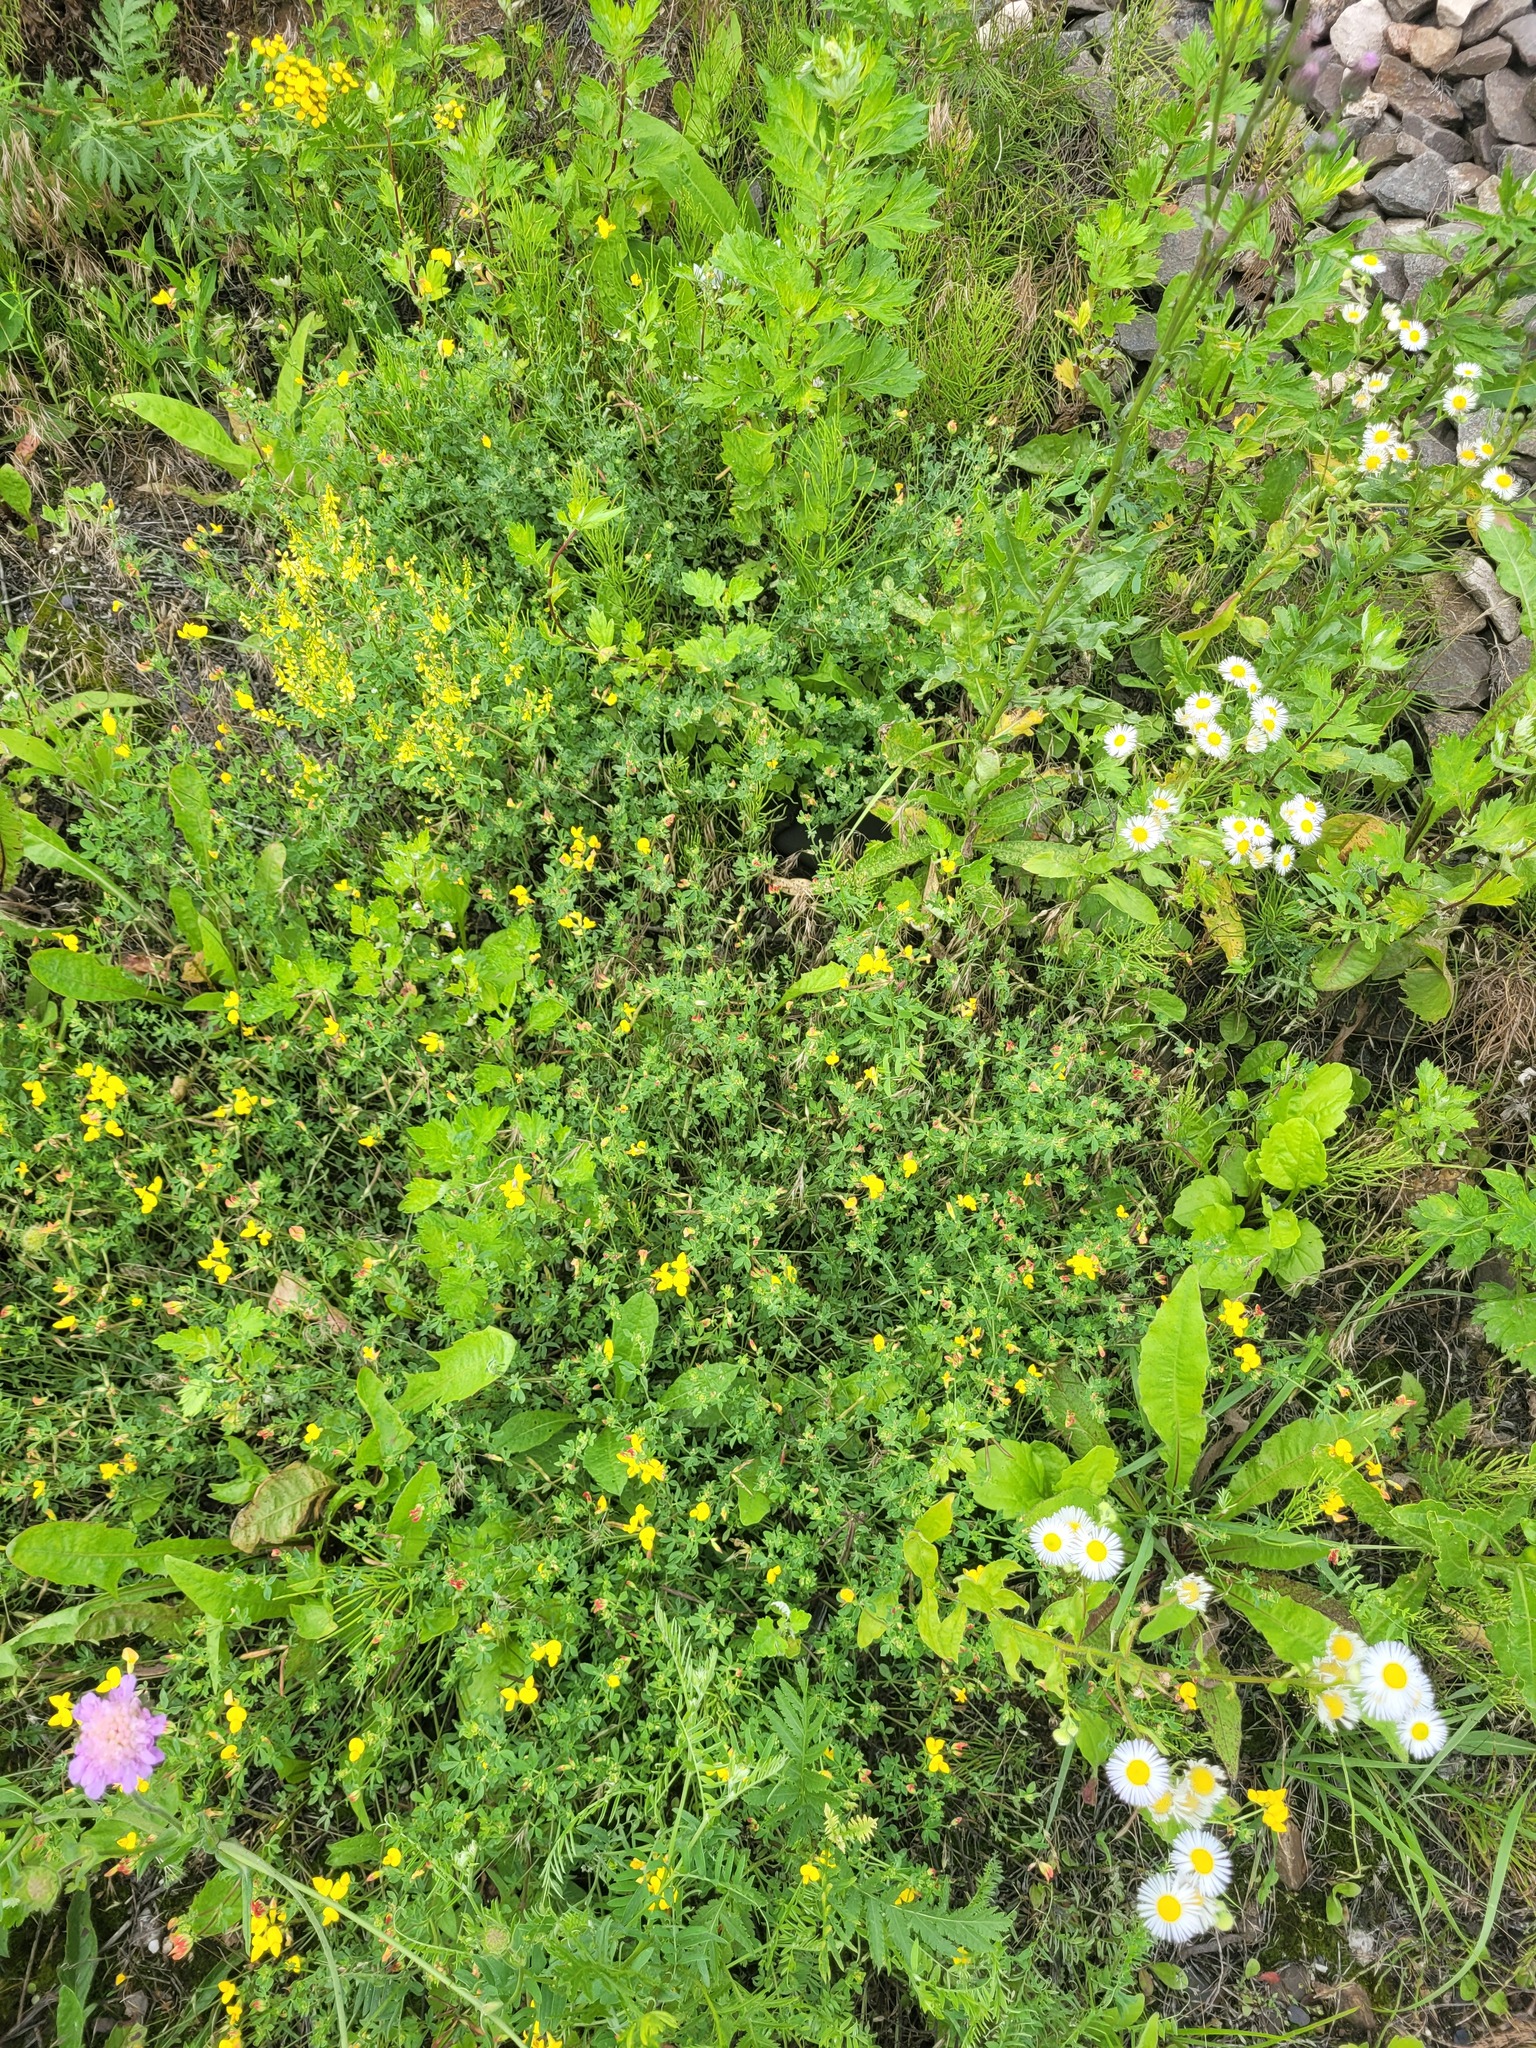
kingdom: Plantae
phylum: Tracheophyta
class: Magnoliopsida
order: Fabales
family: Fabaceae
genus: Lotus
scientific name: Lotus corniculatus
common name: Common bird's-foot-trefoil
